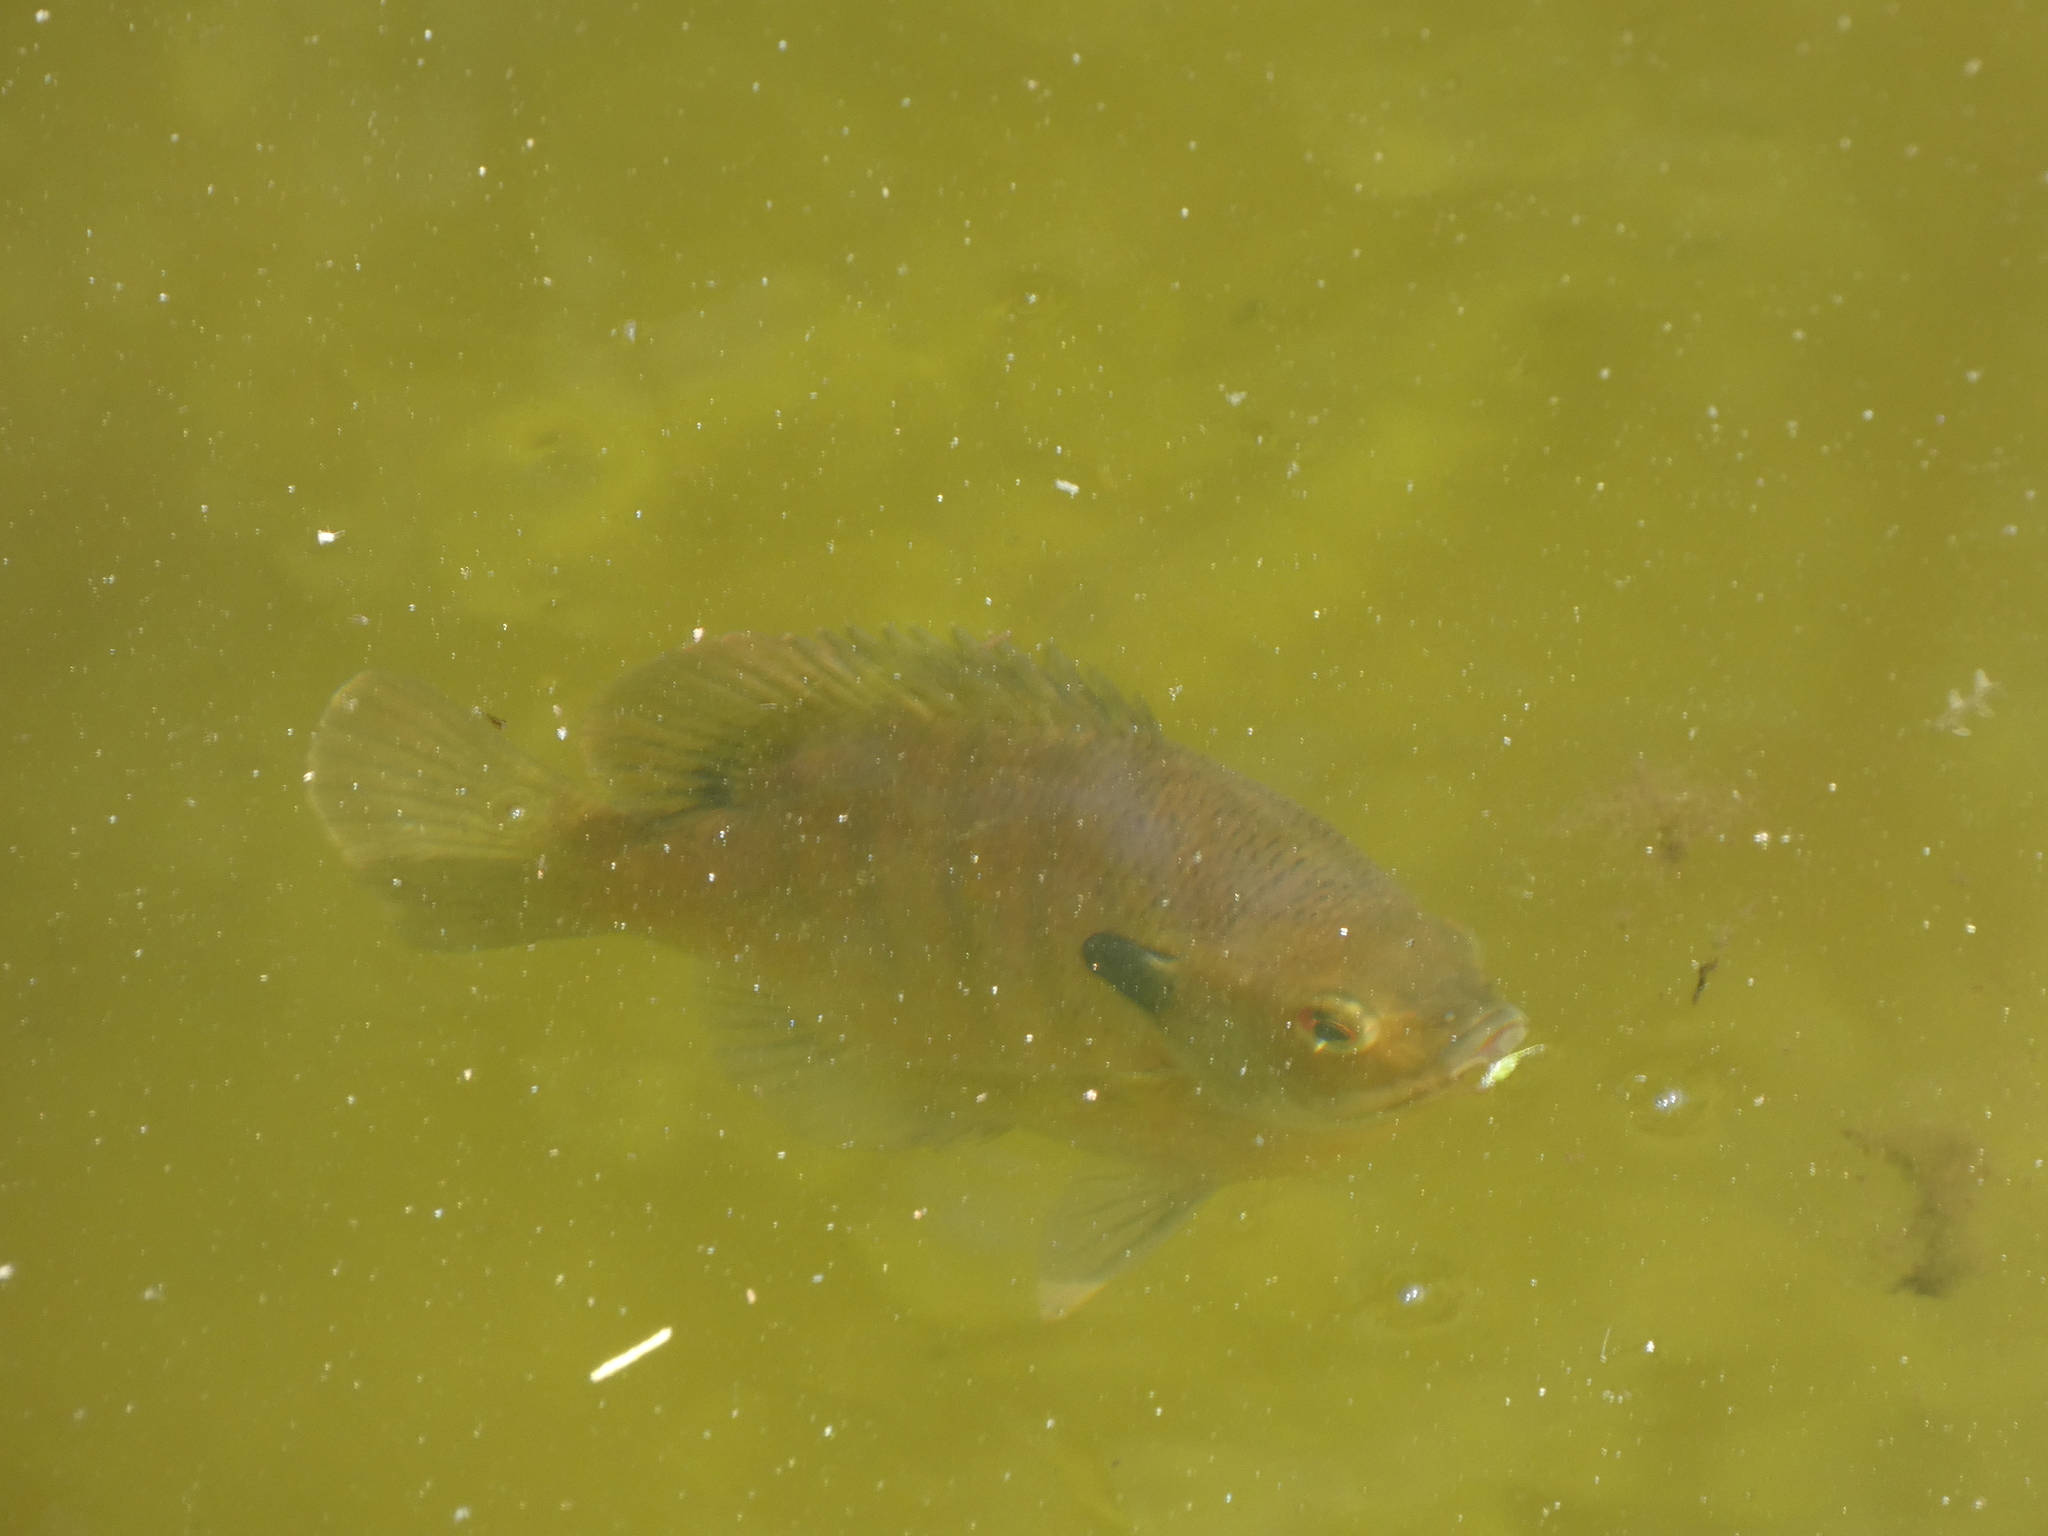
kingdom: Animalia
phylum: Chordata
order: Perciformes
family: Centrarchidae
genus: Lepomis
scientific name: Lepomis macrochirus
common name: Bluegill
